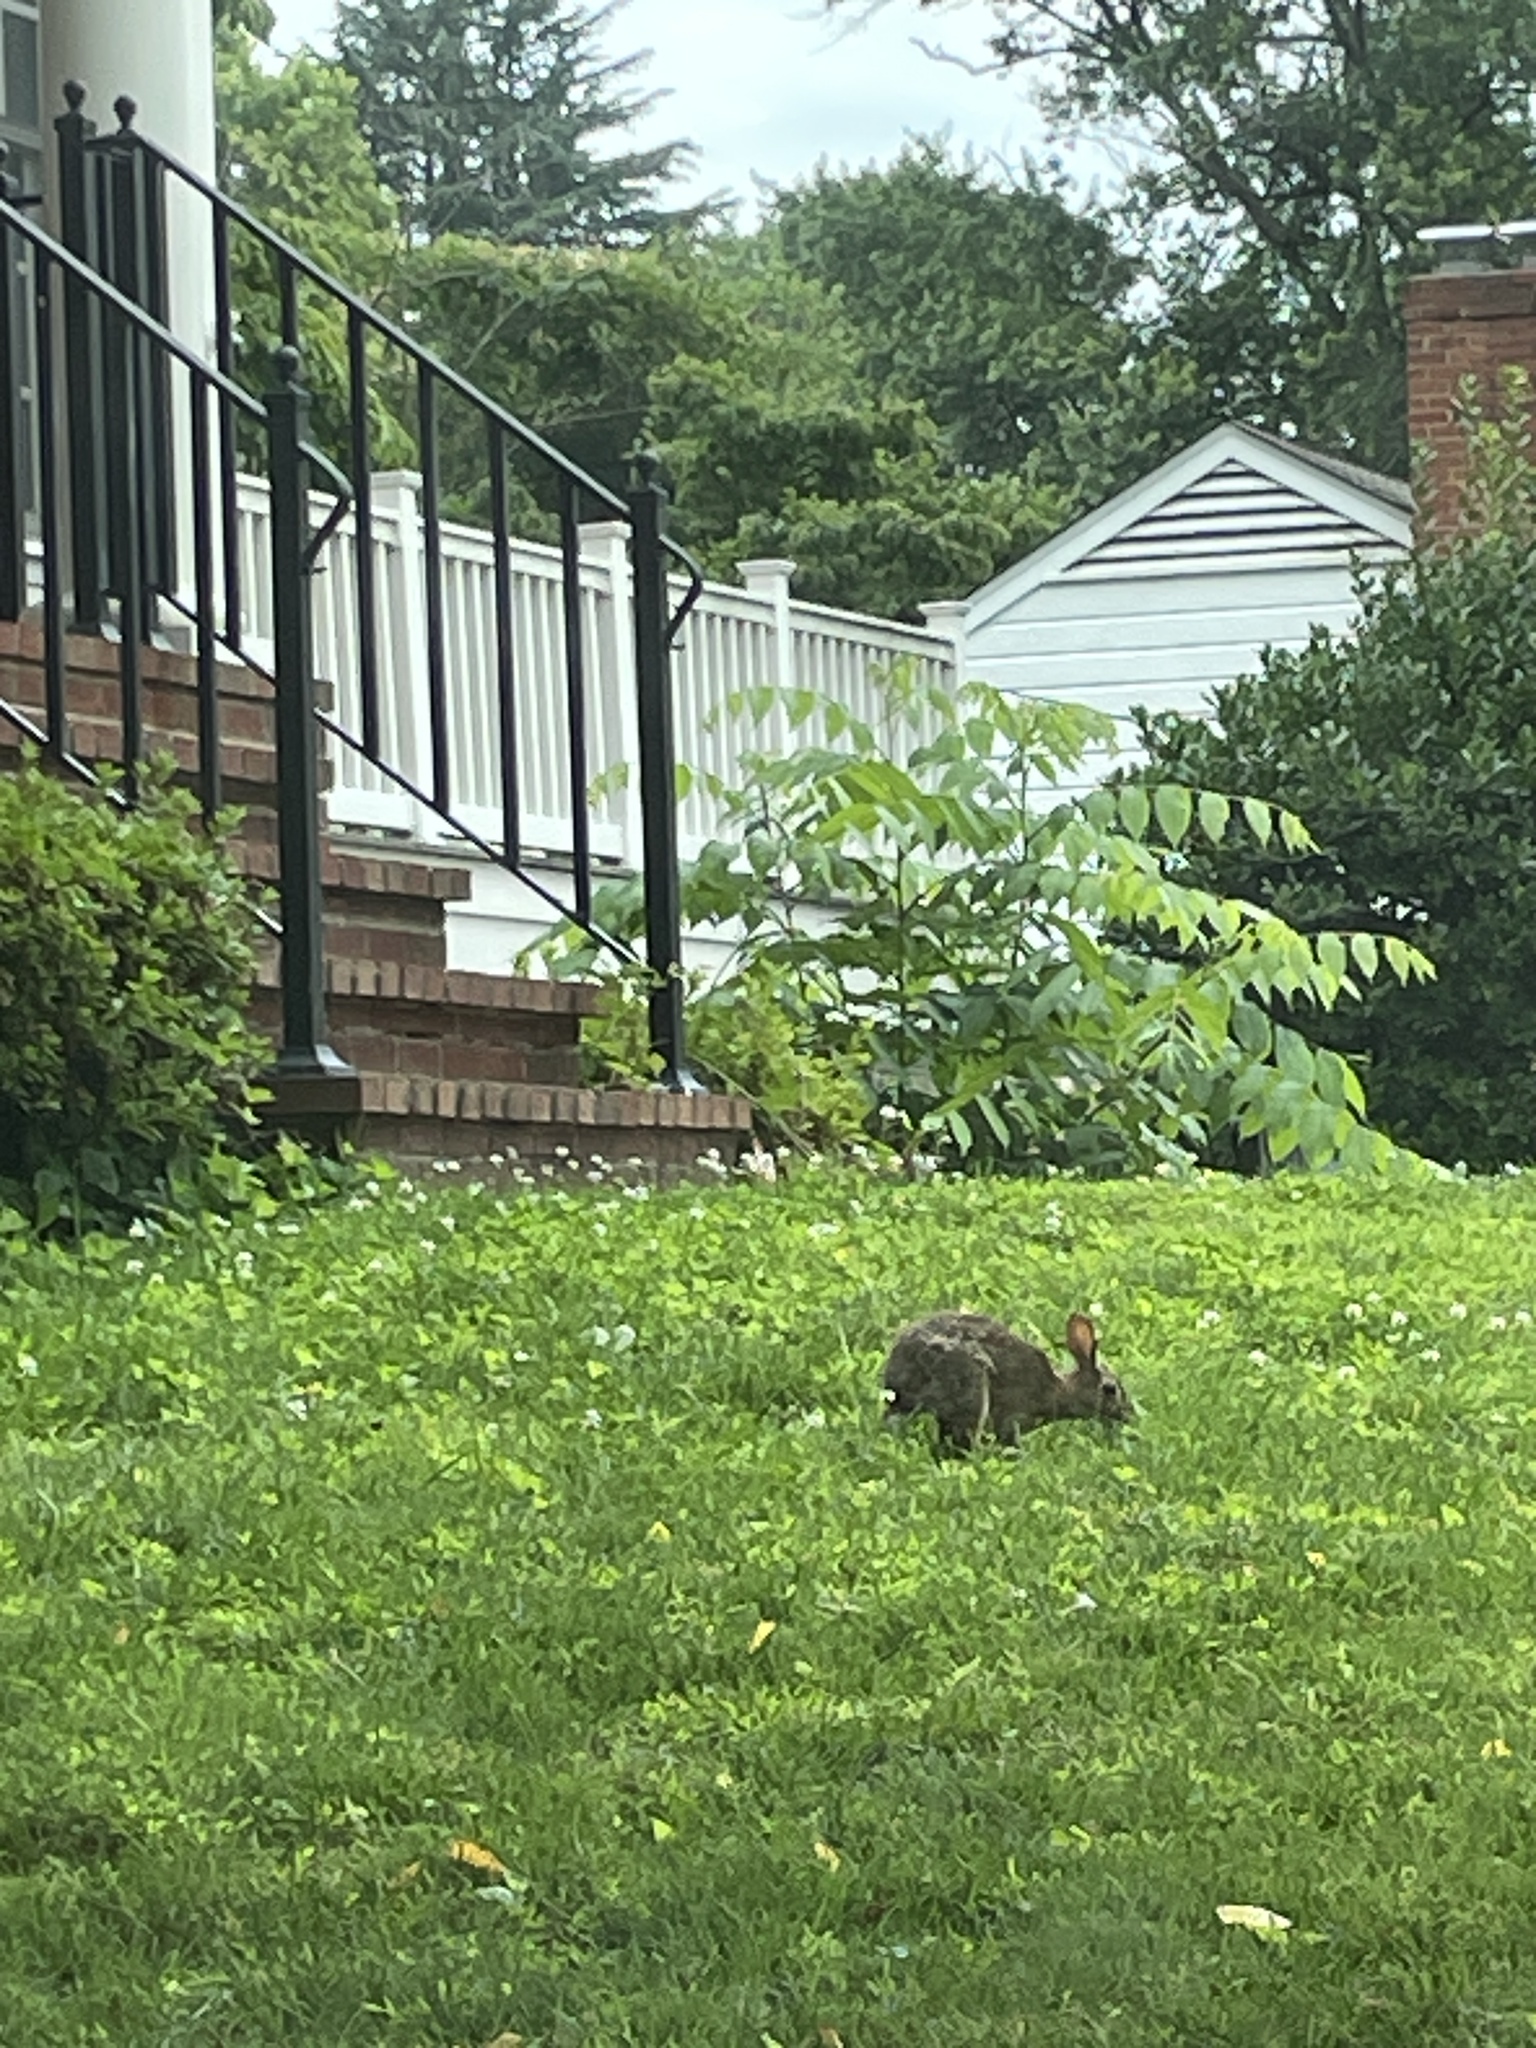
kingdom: Animalia
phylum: Chordata
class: Mammalia
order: Lagomorpha
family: Leporidae
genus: Sylvilagus
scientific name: Sylvilagus floridanus
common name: Eastern cottontail
